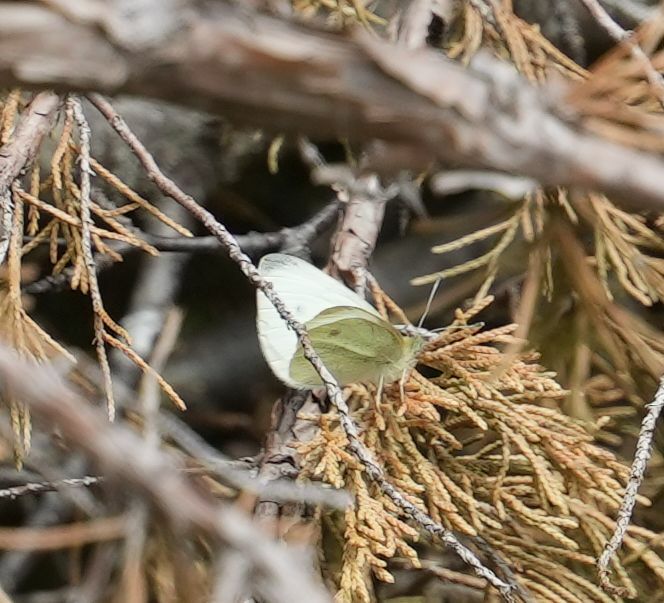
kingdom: Animalia
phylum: Arthropoda
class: Insecta
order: Lepidoptera
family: Pieridae
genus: Pieris
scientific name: Pieris rapae
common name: Small white
